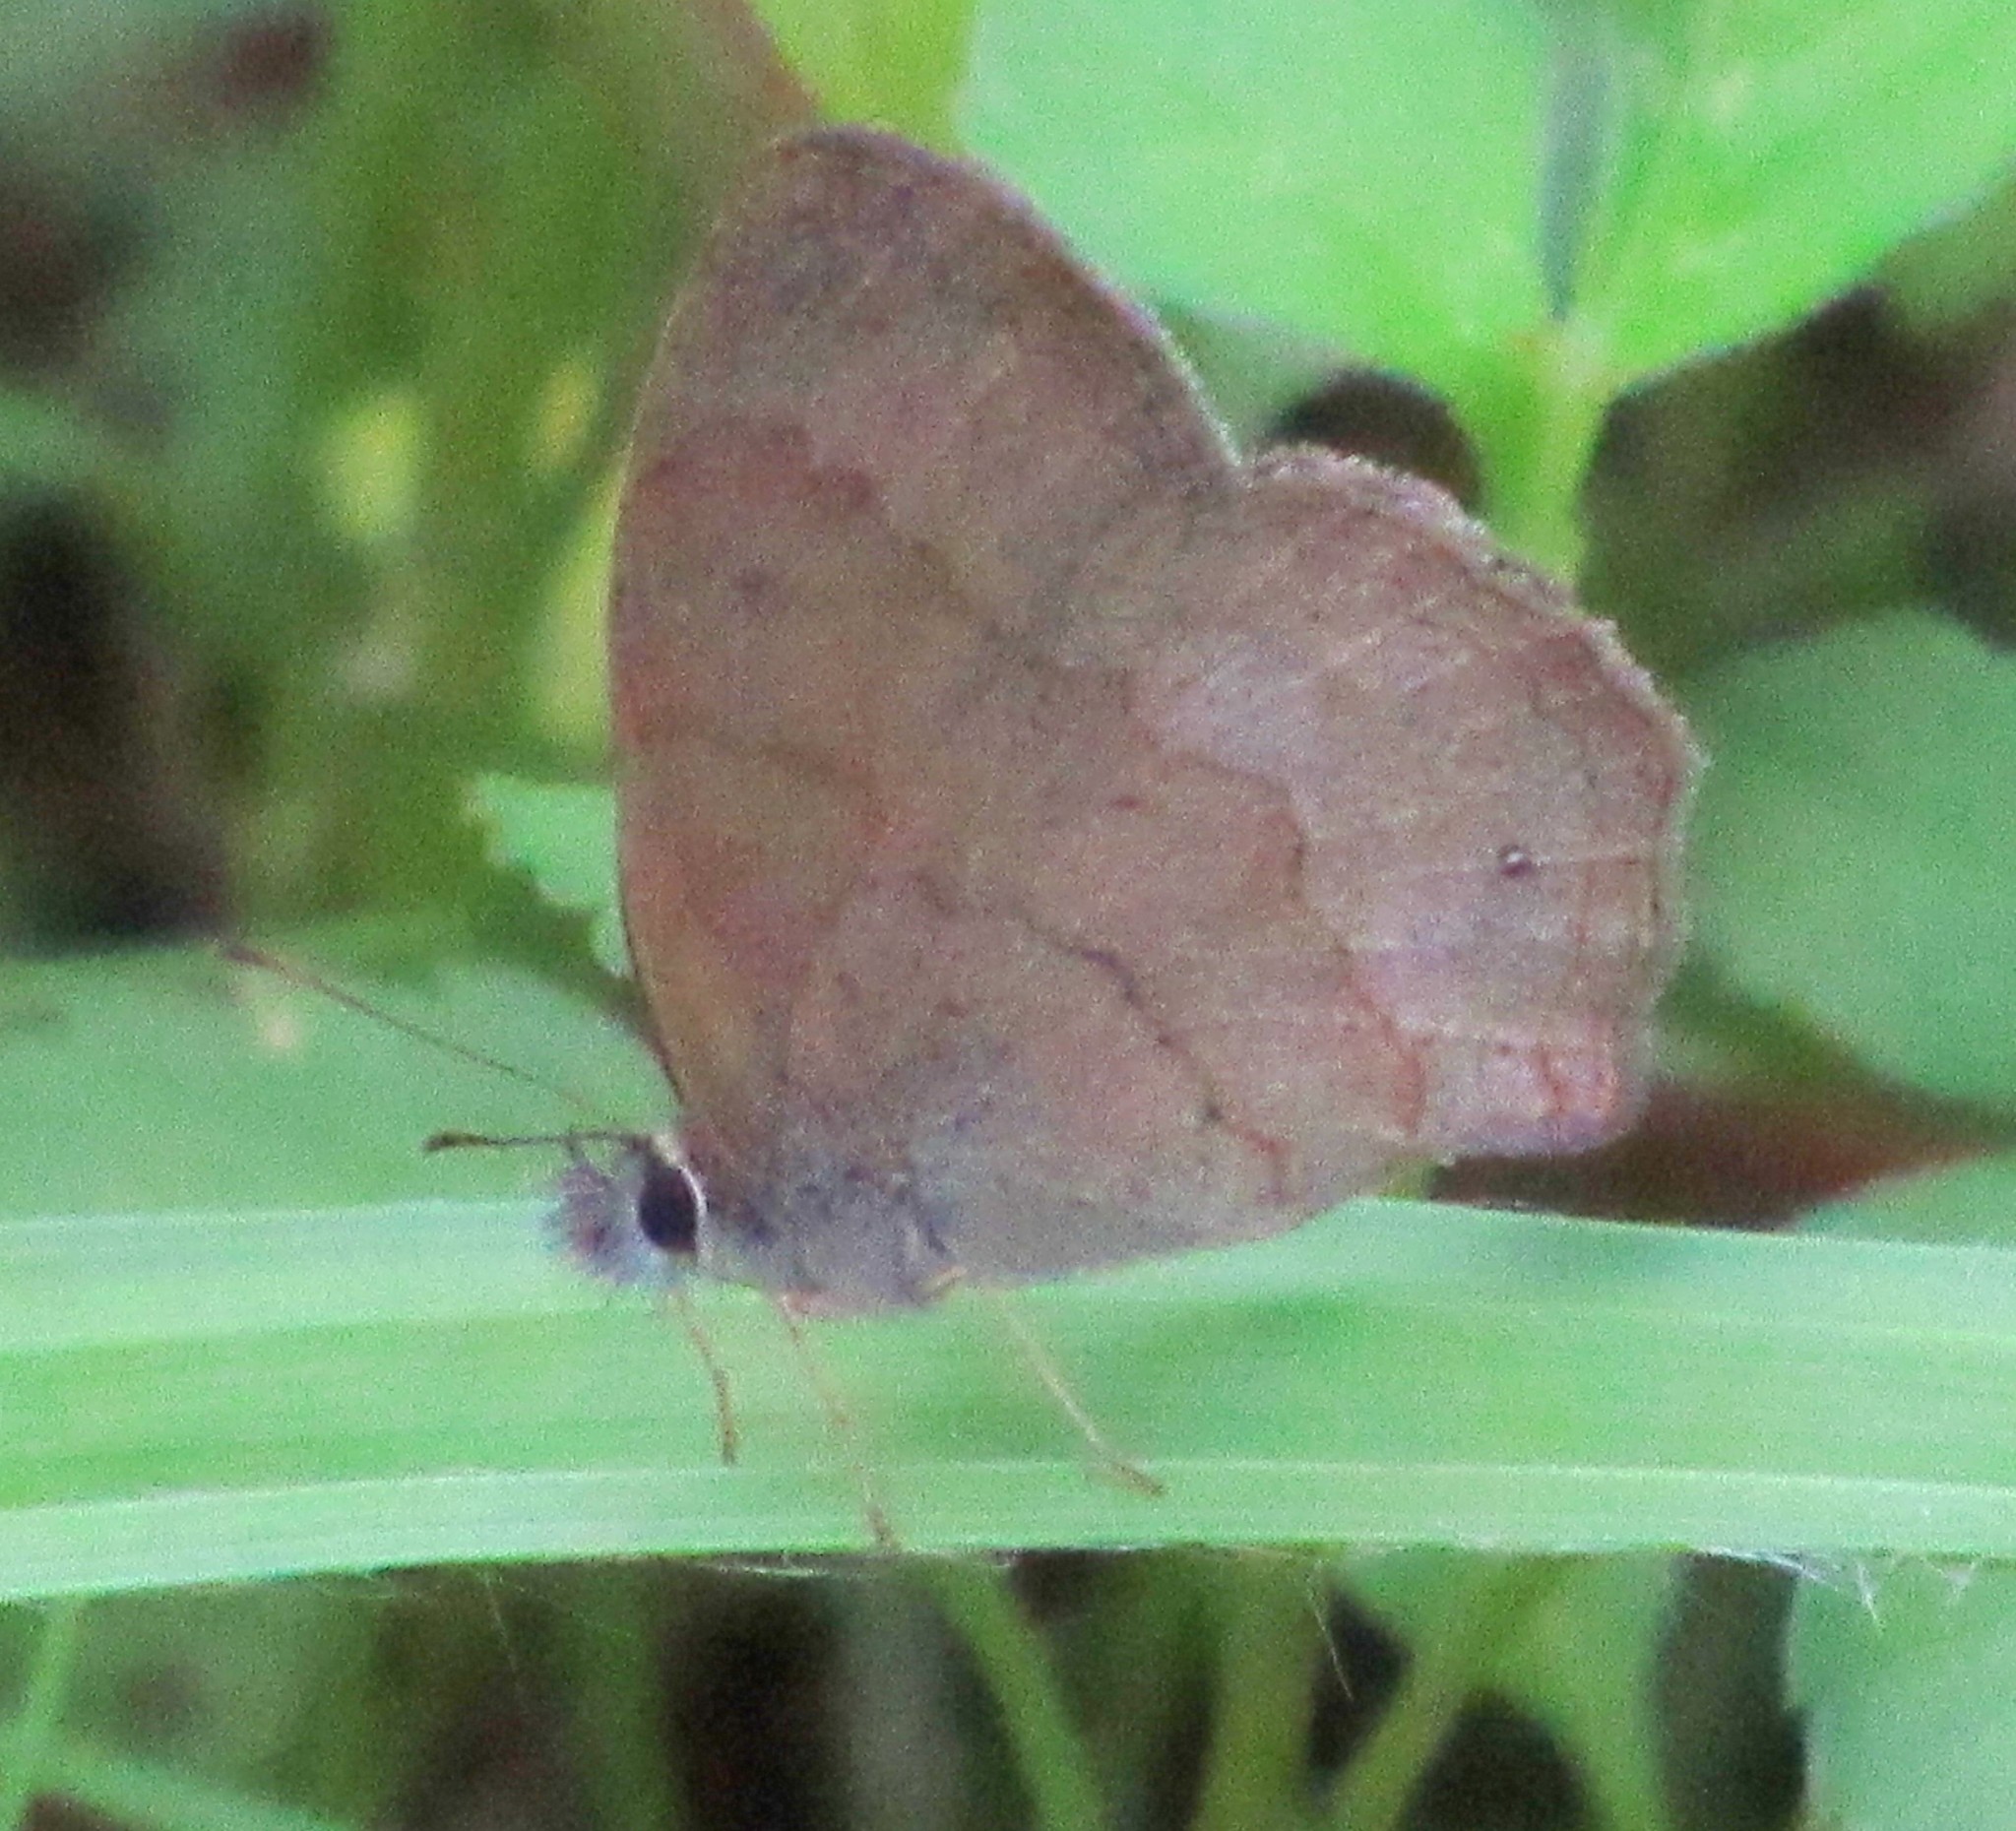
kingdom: Animalia
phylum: Arthropoda
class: Insecta
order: Lepidoptera
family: Nymphalidae
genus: Euptychia
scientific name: Euptychia
